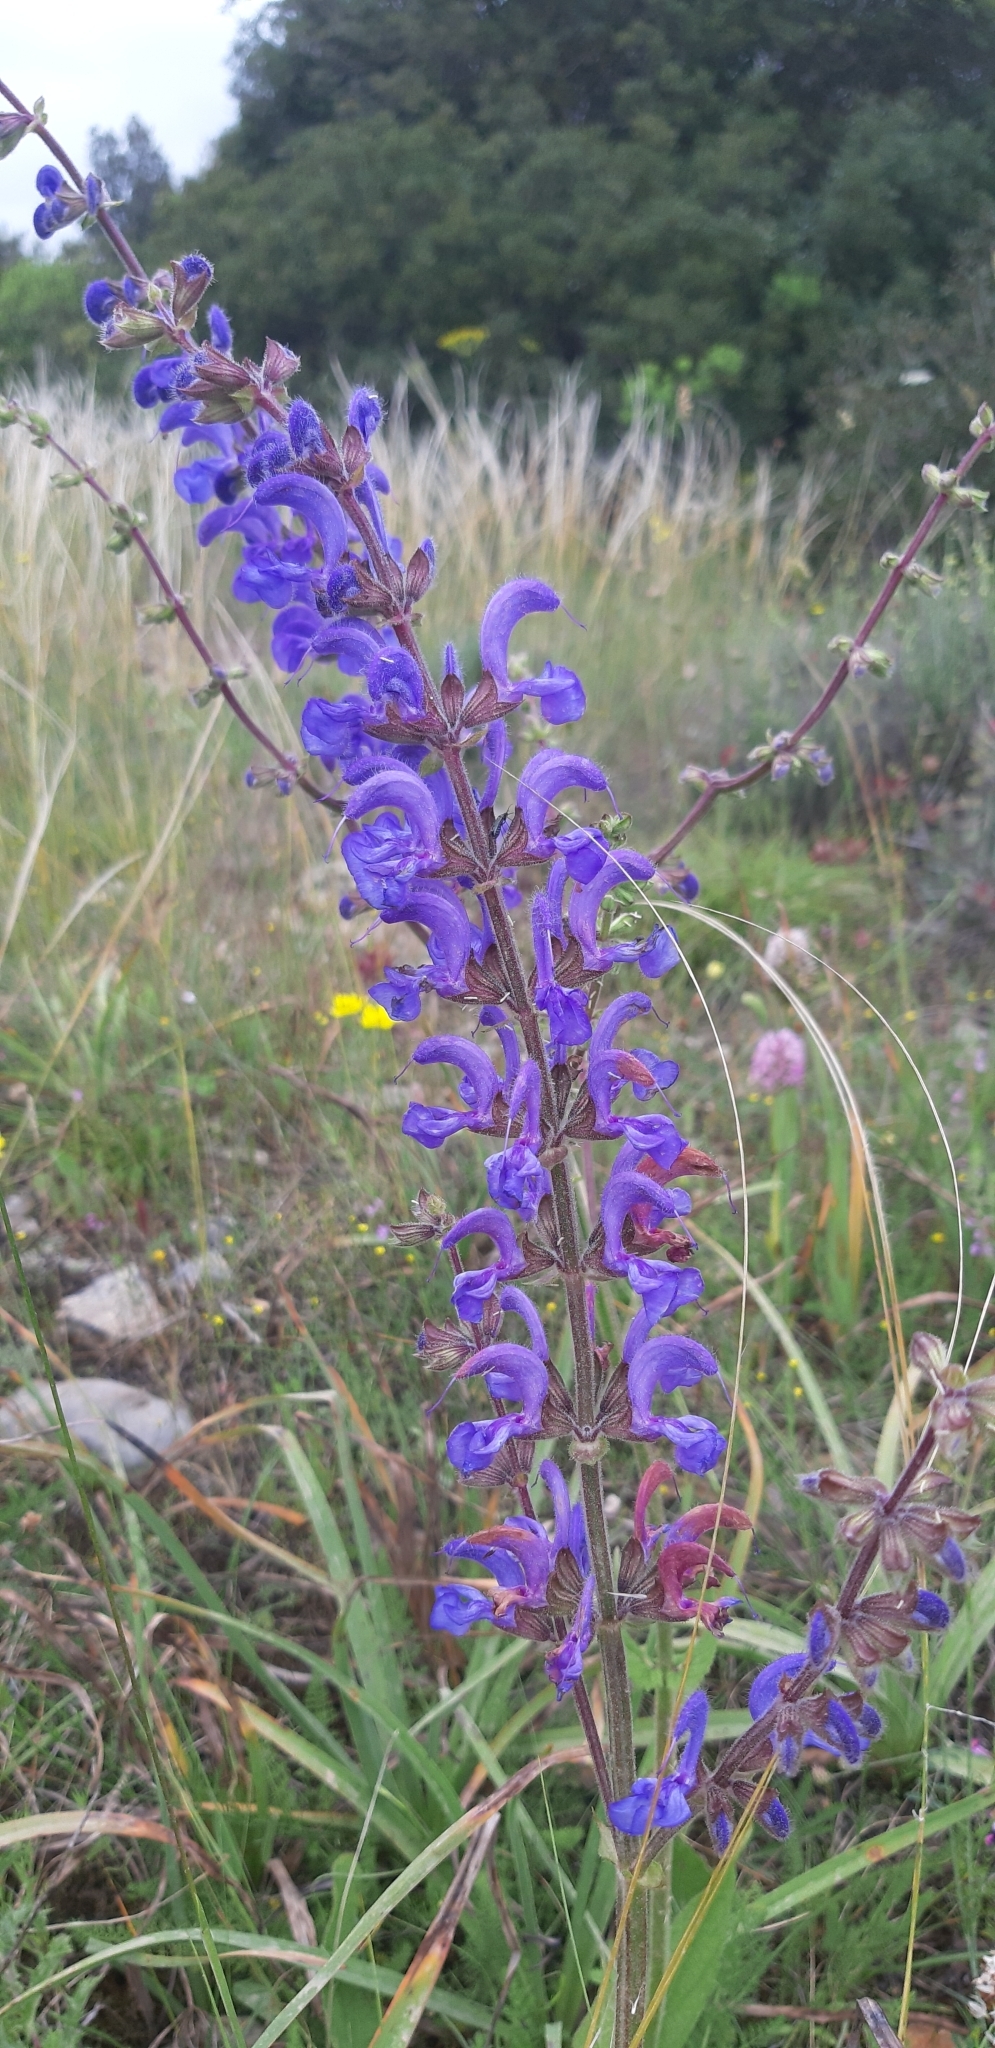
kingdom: Plantae
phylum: Tracheophyta
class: Magnoliopsida
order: Lamiales
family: Lamiaceae
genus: Salvia
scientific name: Salvia pratensis
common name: Meadow sage
